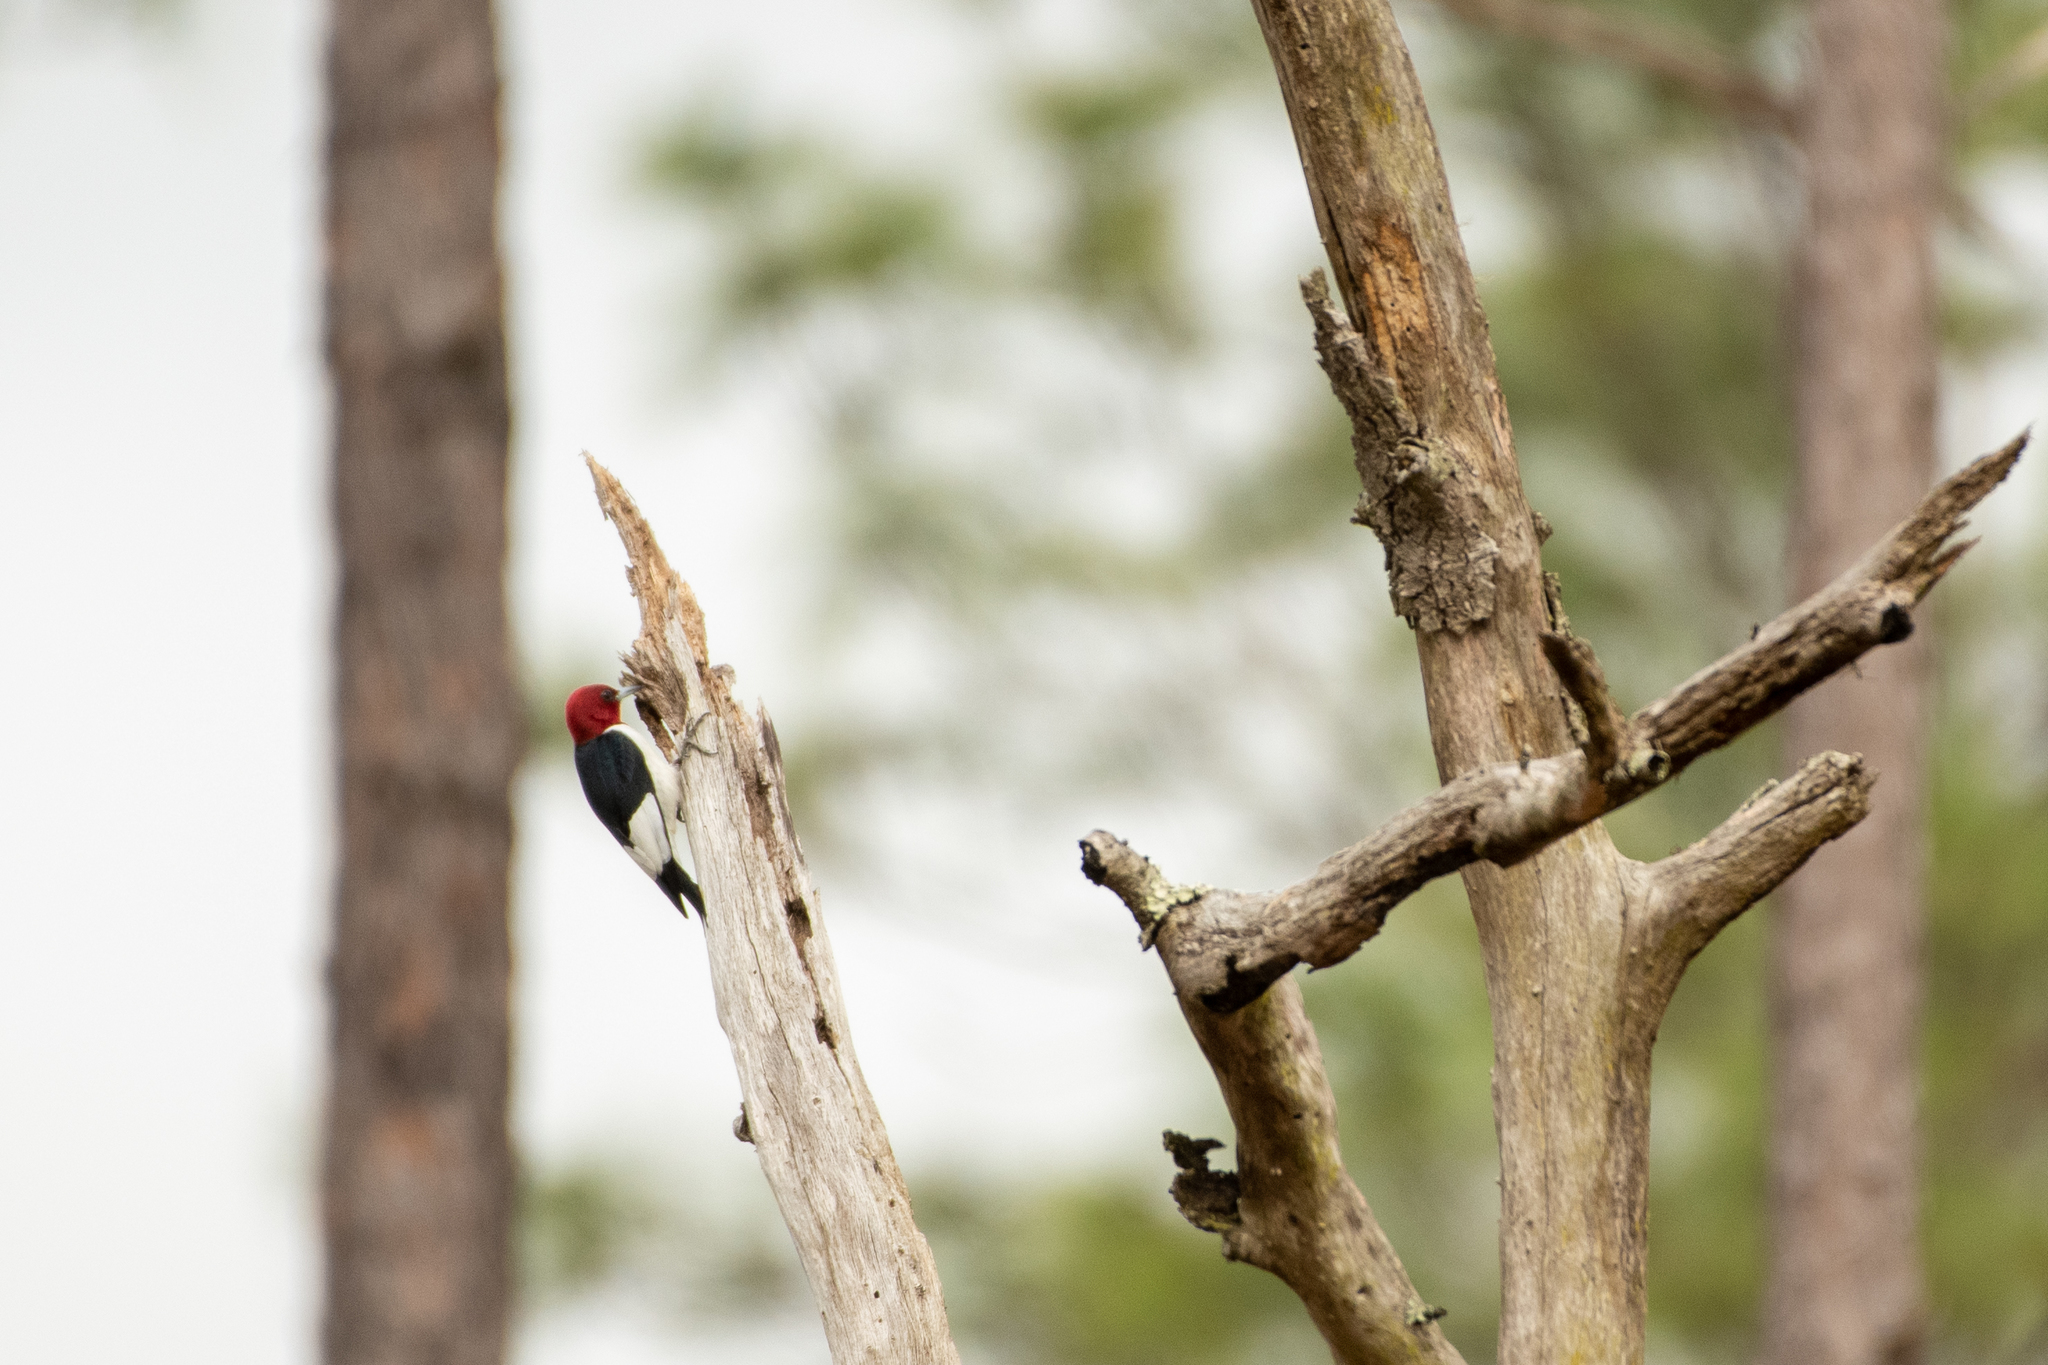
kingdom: Animalia
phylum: Chordata
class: Aves
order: Piciformes
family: Picidae
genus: Melanerpes
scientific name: Melanerpes erythrocephalus
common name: Red-headed woodpecker
